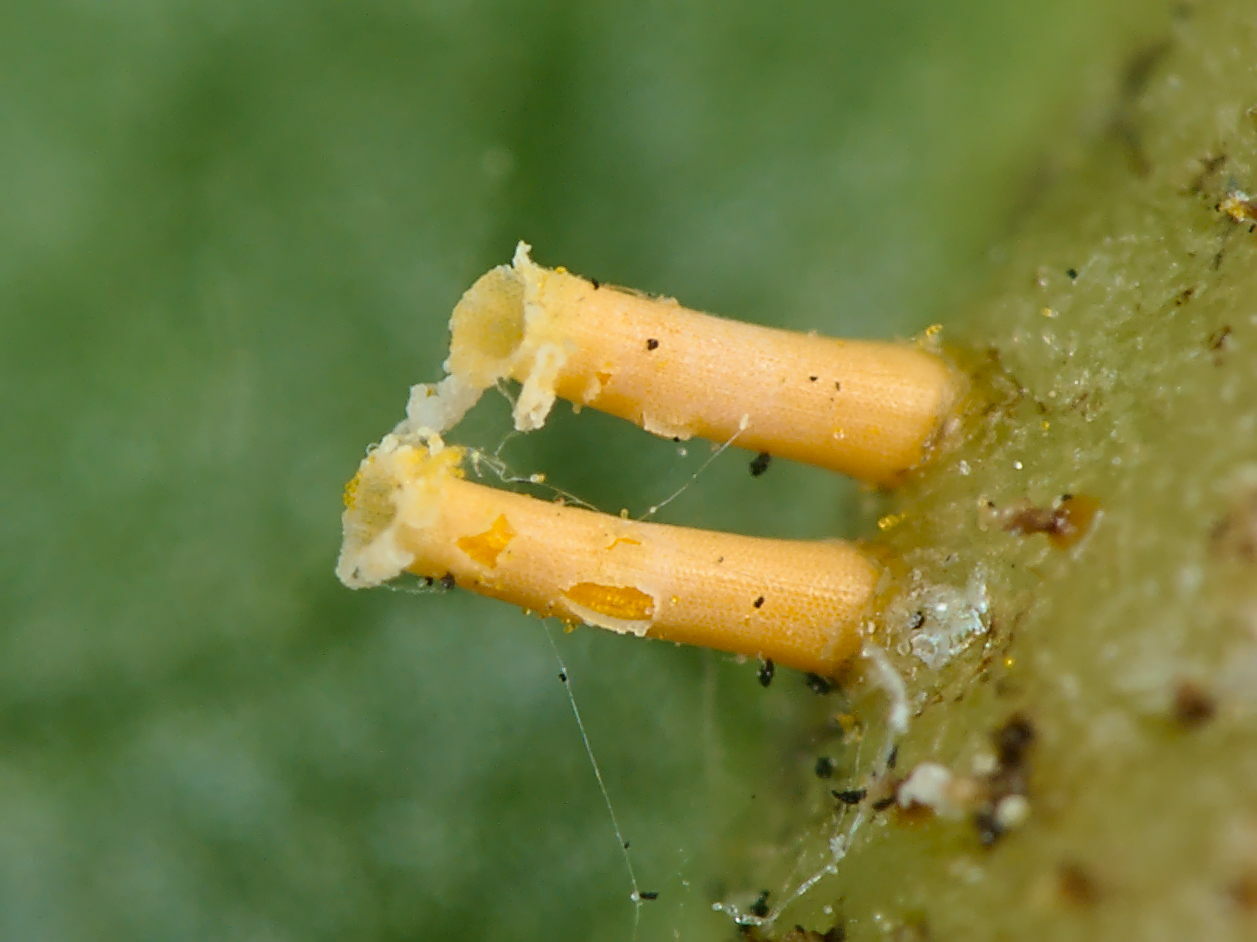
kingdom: Fungi
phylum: Basidiomycota
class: Pucciniomycetes
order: Pucciniales
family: Pucciniaceae
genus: Puccinia
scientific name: Puccinia recondita
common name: Brown rust of wheat
